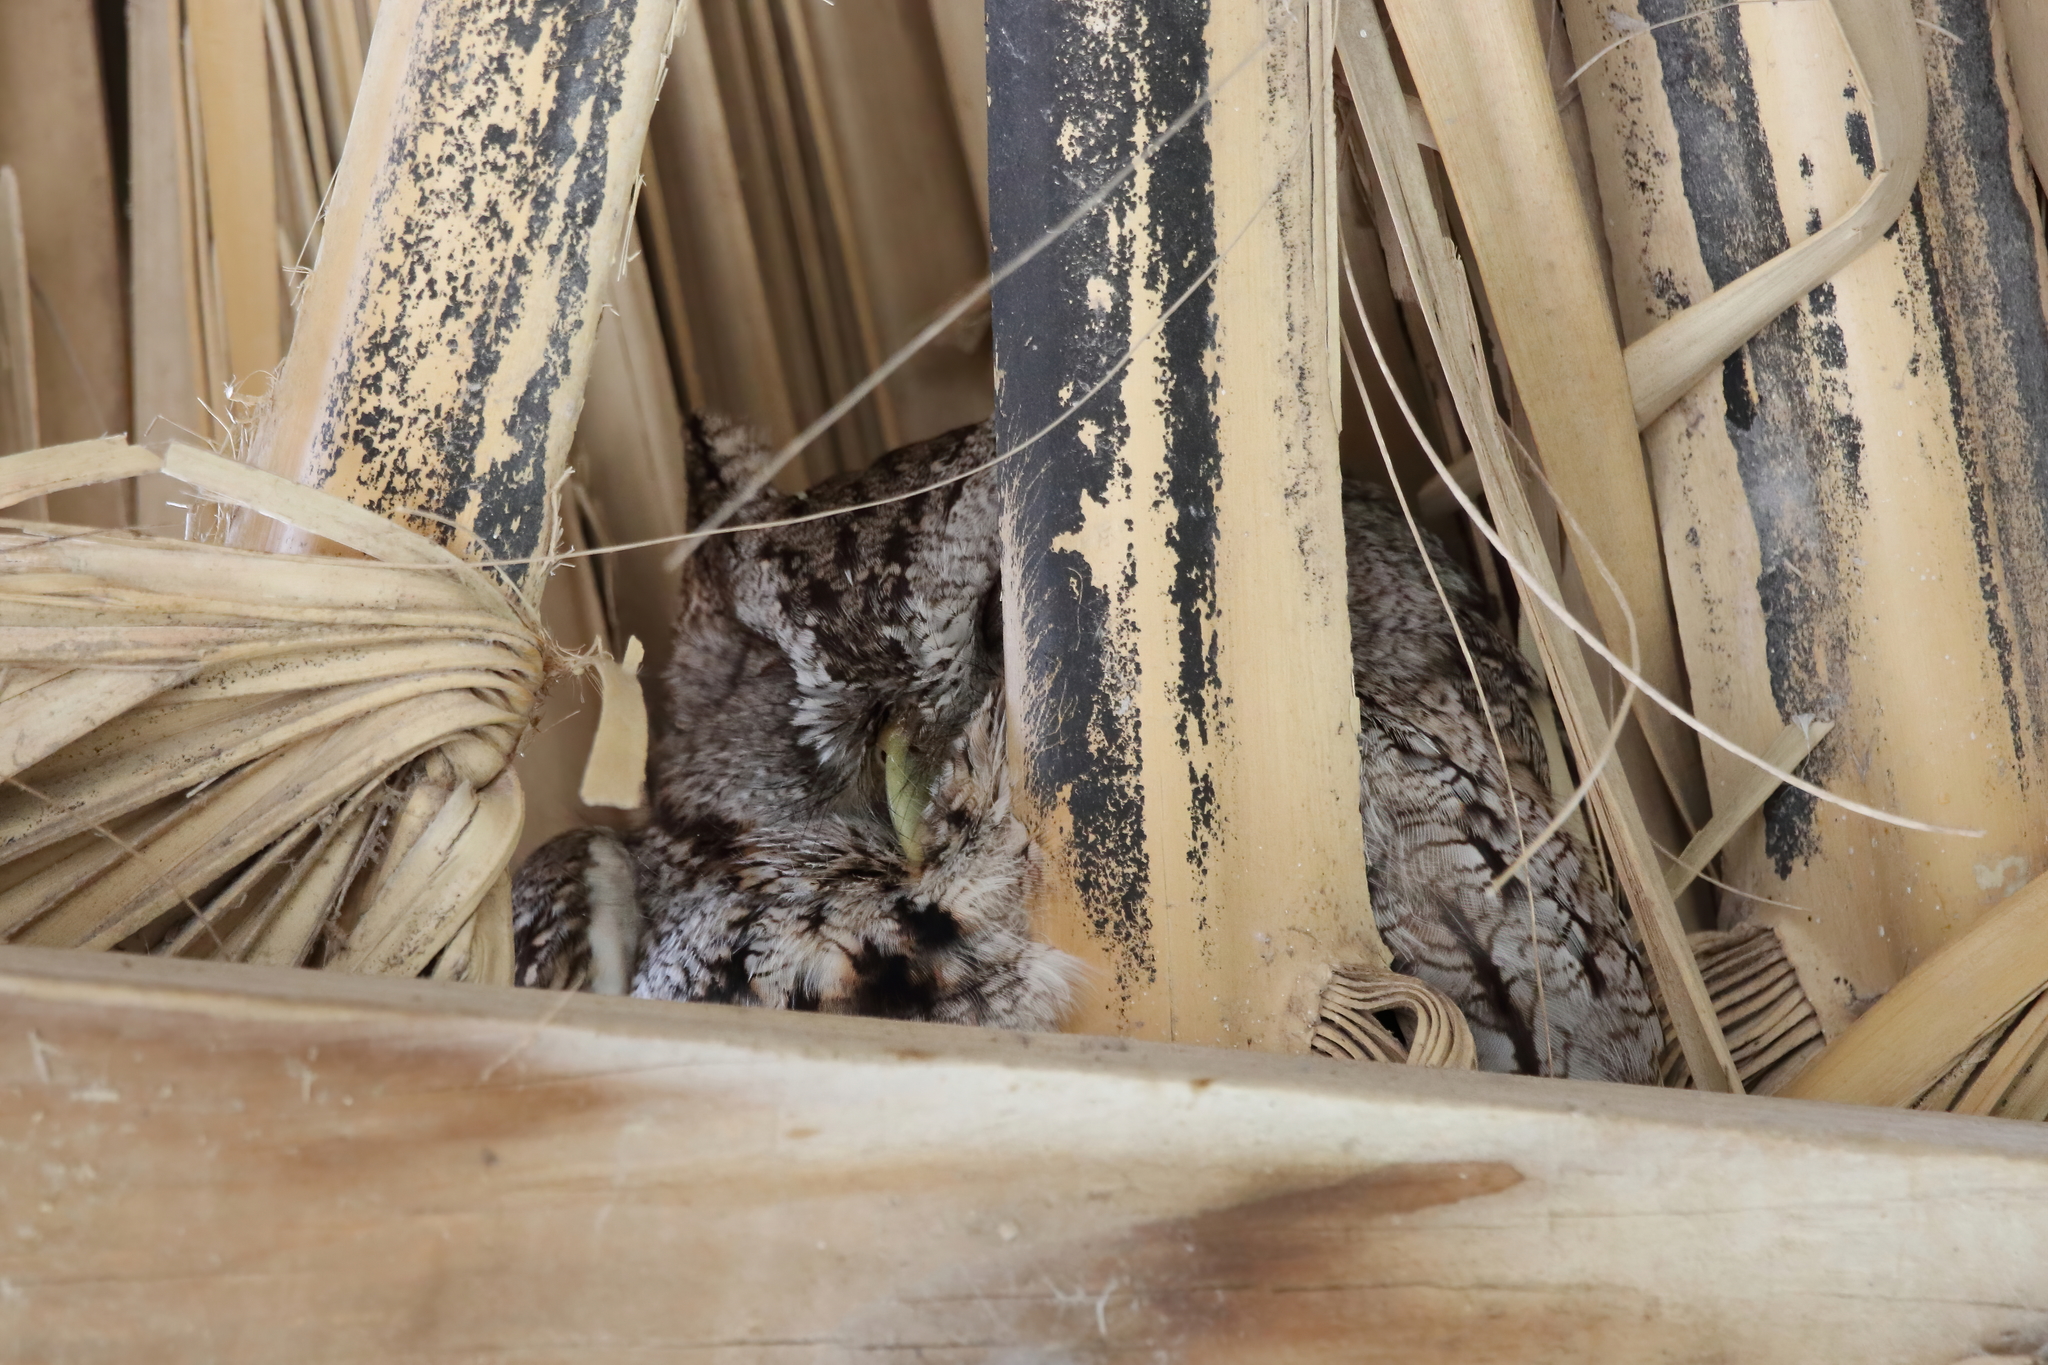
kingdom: Animalia
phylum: Chordata
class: Aves
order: Strigiformes
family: Strigidae
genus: Megascops
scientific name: Megascops asio
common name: Eastern screech-owl
